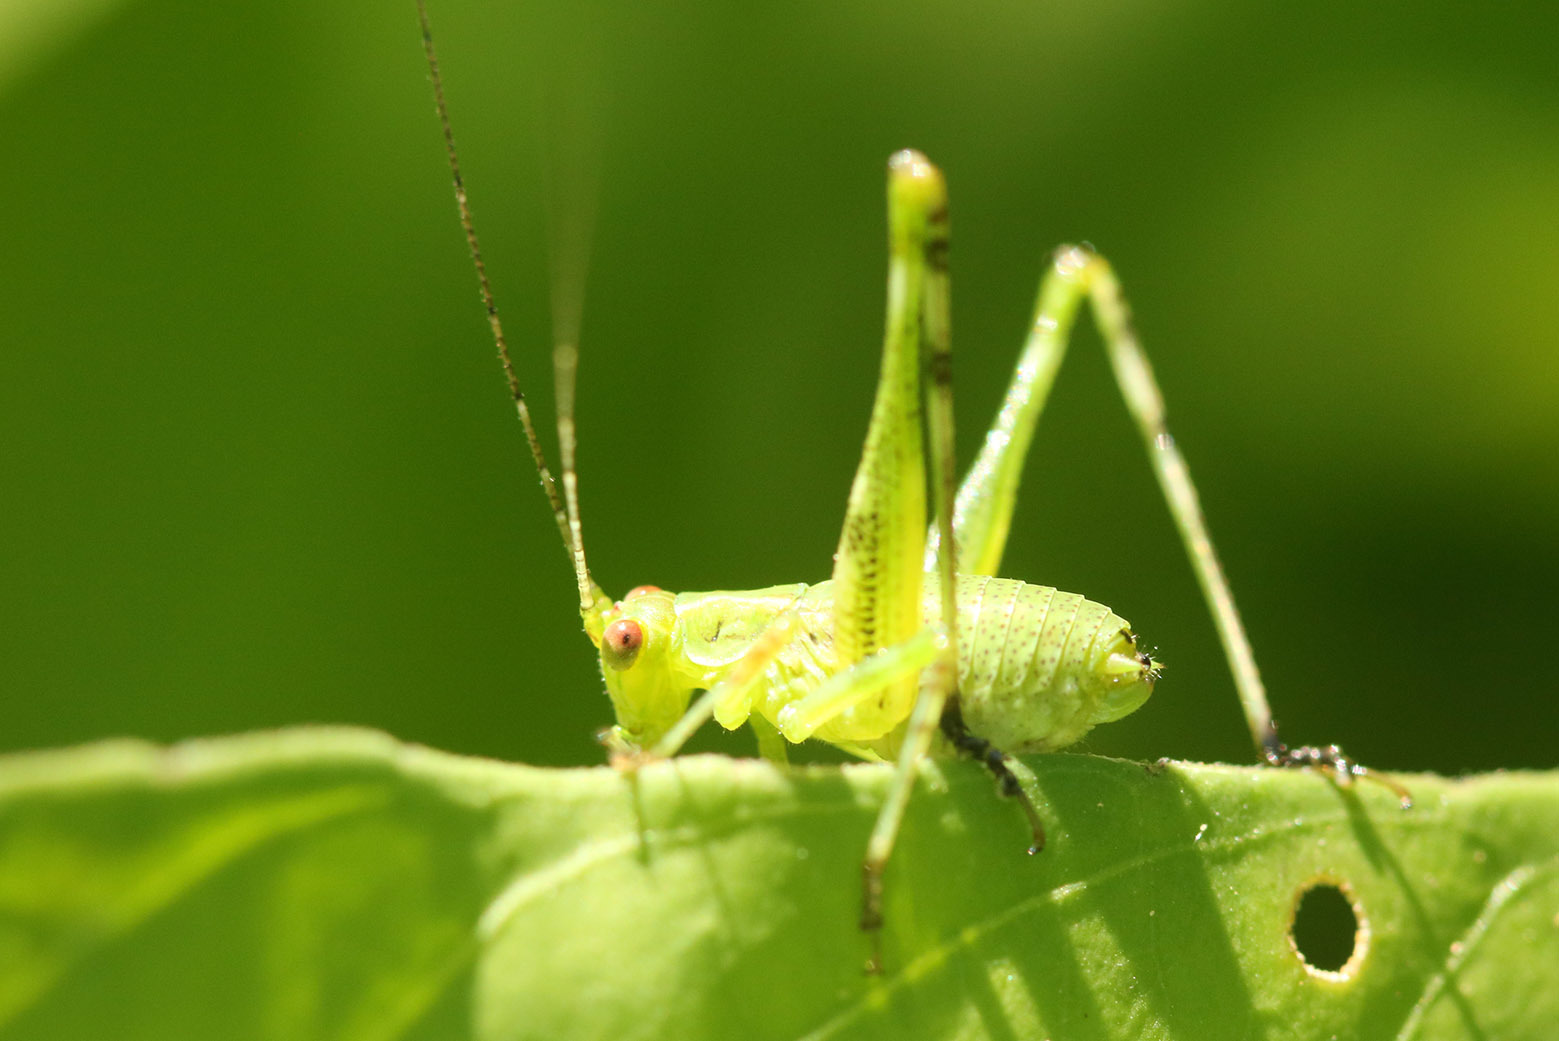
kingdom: Animalia
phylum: Arthropoda
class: Insecta
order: Orthoptera
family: Tettigoniidae
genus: Ligocatinus
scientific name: Ligocatinus spinatus
